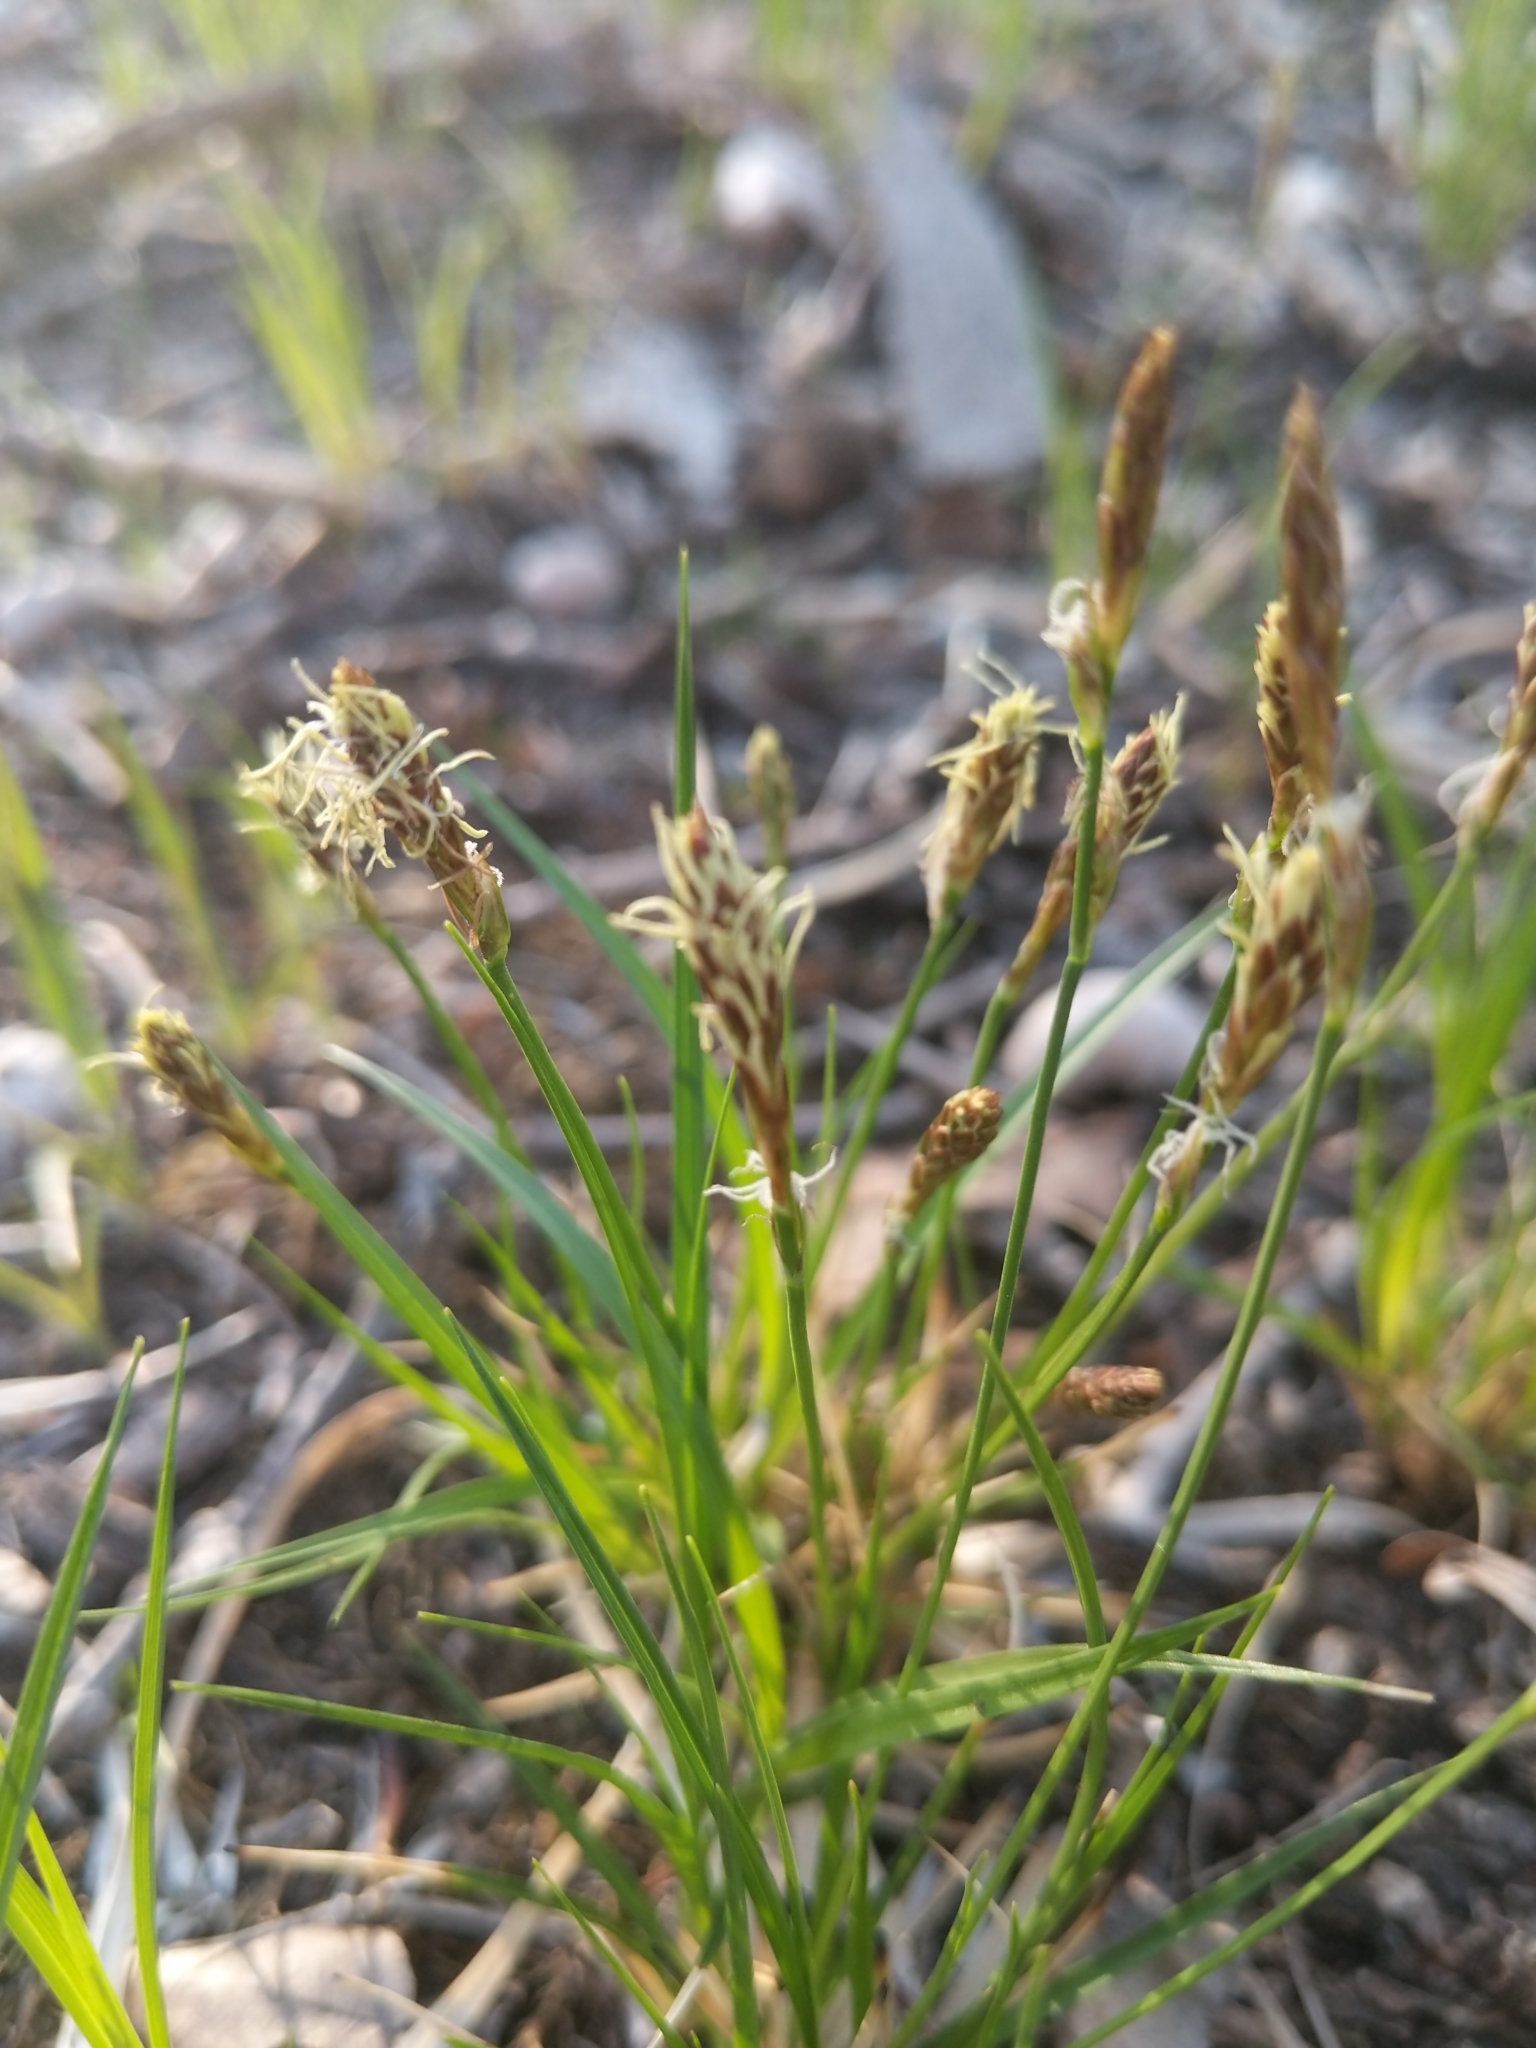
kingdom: Plantae
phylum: Tracheophyta
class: Liliopsida
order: Poales
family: Cyperaceae
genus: Carex
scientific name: Carex pensylvanica
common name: Common oak sedge
